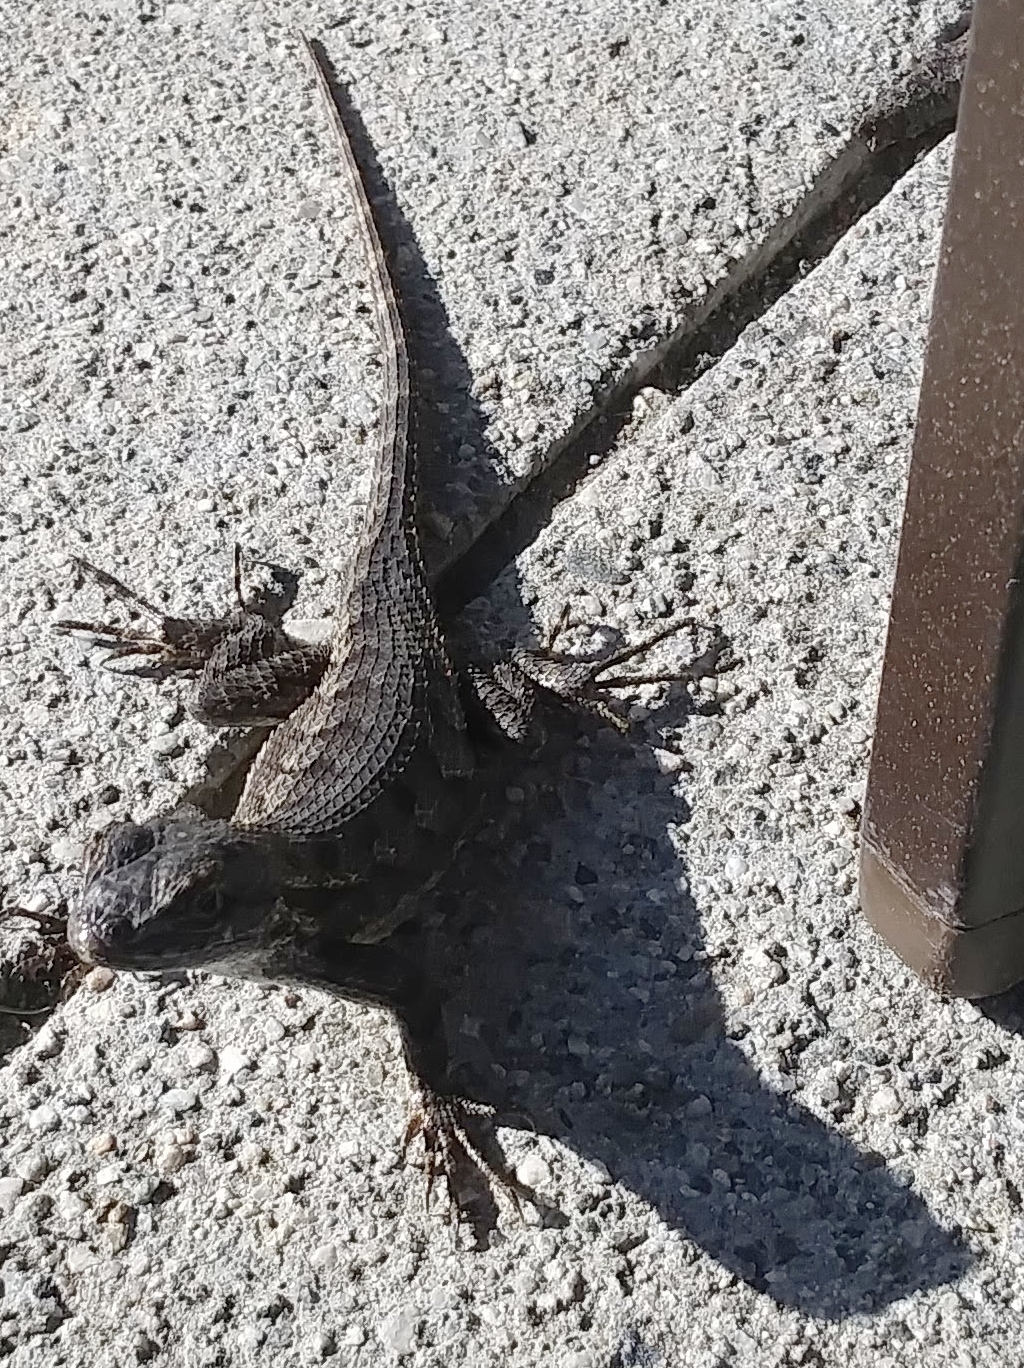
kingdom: Animalia
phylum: Chordata
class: Squamata
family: Phrynosomatidae
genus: Sceloporus
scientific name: Sceloporus occidentalis
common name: Western fence lizard
